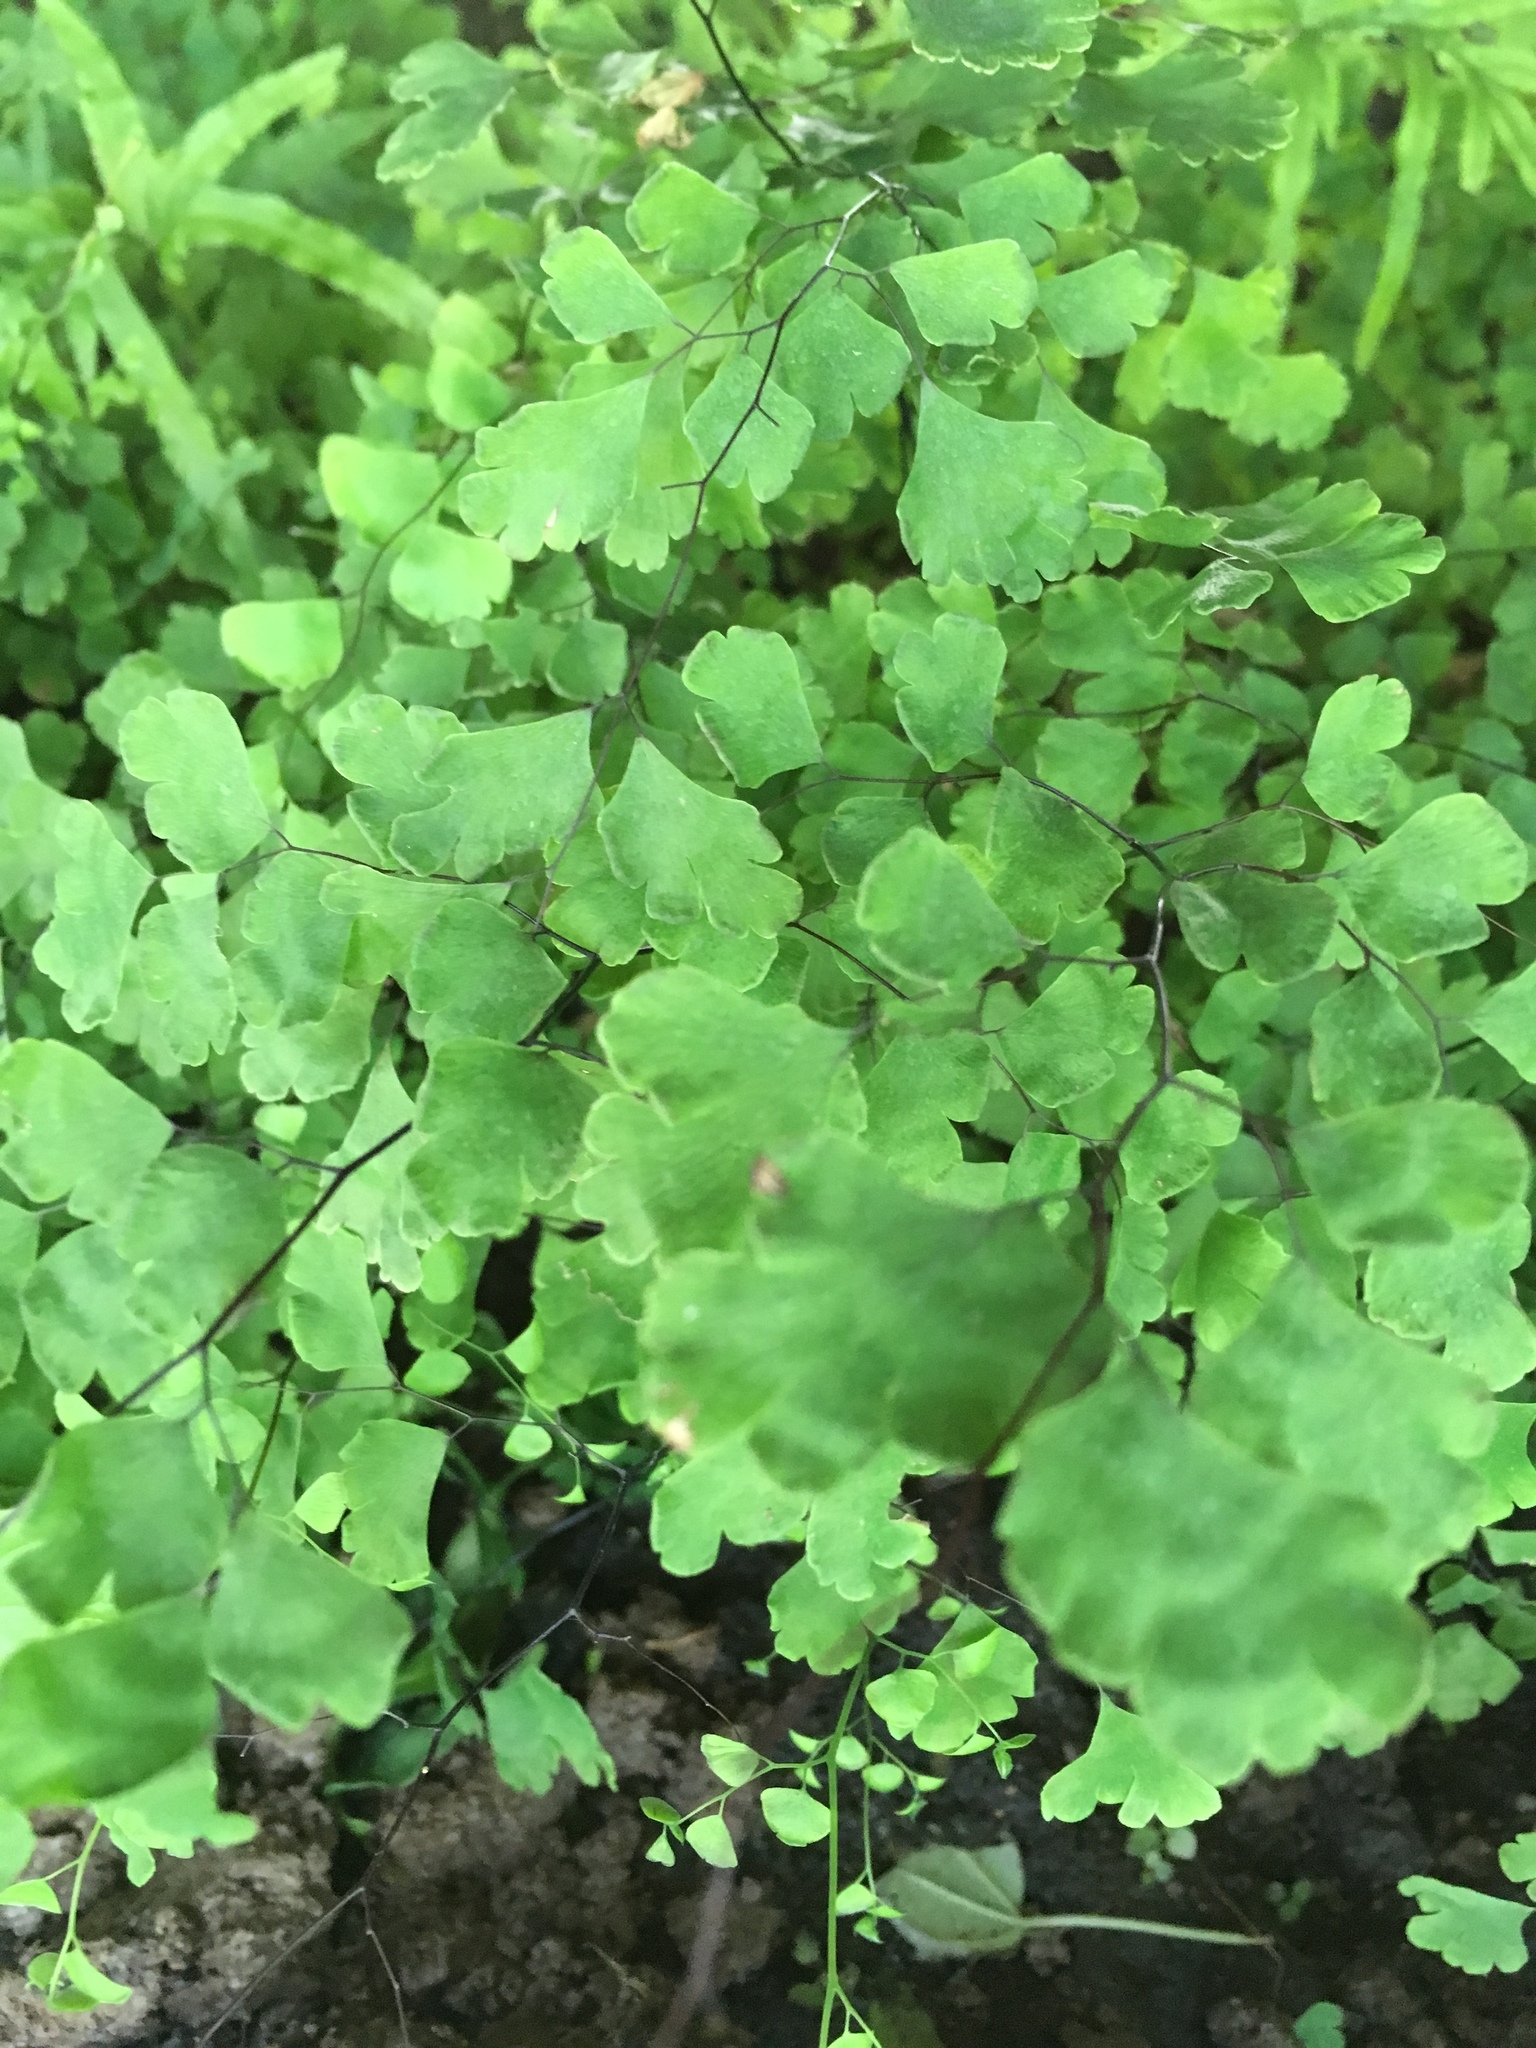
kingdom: Plantae
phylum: Tracheophyta
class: Polypodiopsida
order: Polypodiales
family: Pteridaceae
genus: Adiantum
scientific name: Adiantum capillus-veneris
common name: Maidenhair fern
